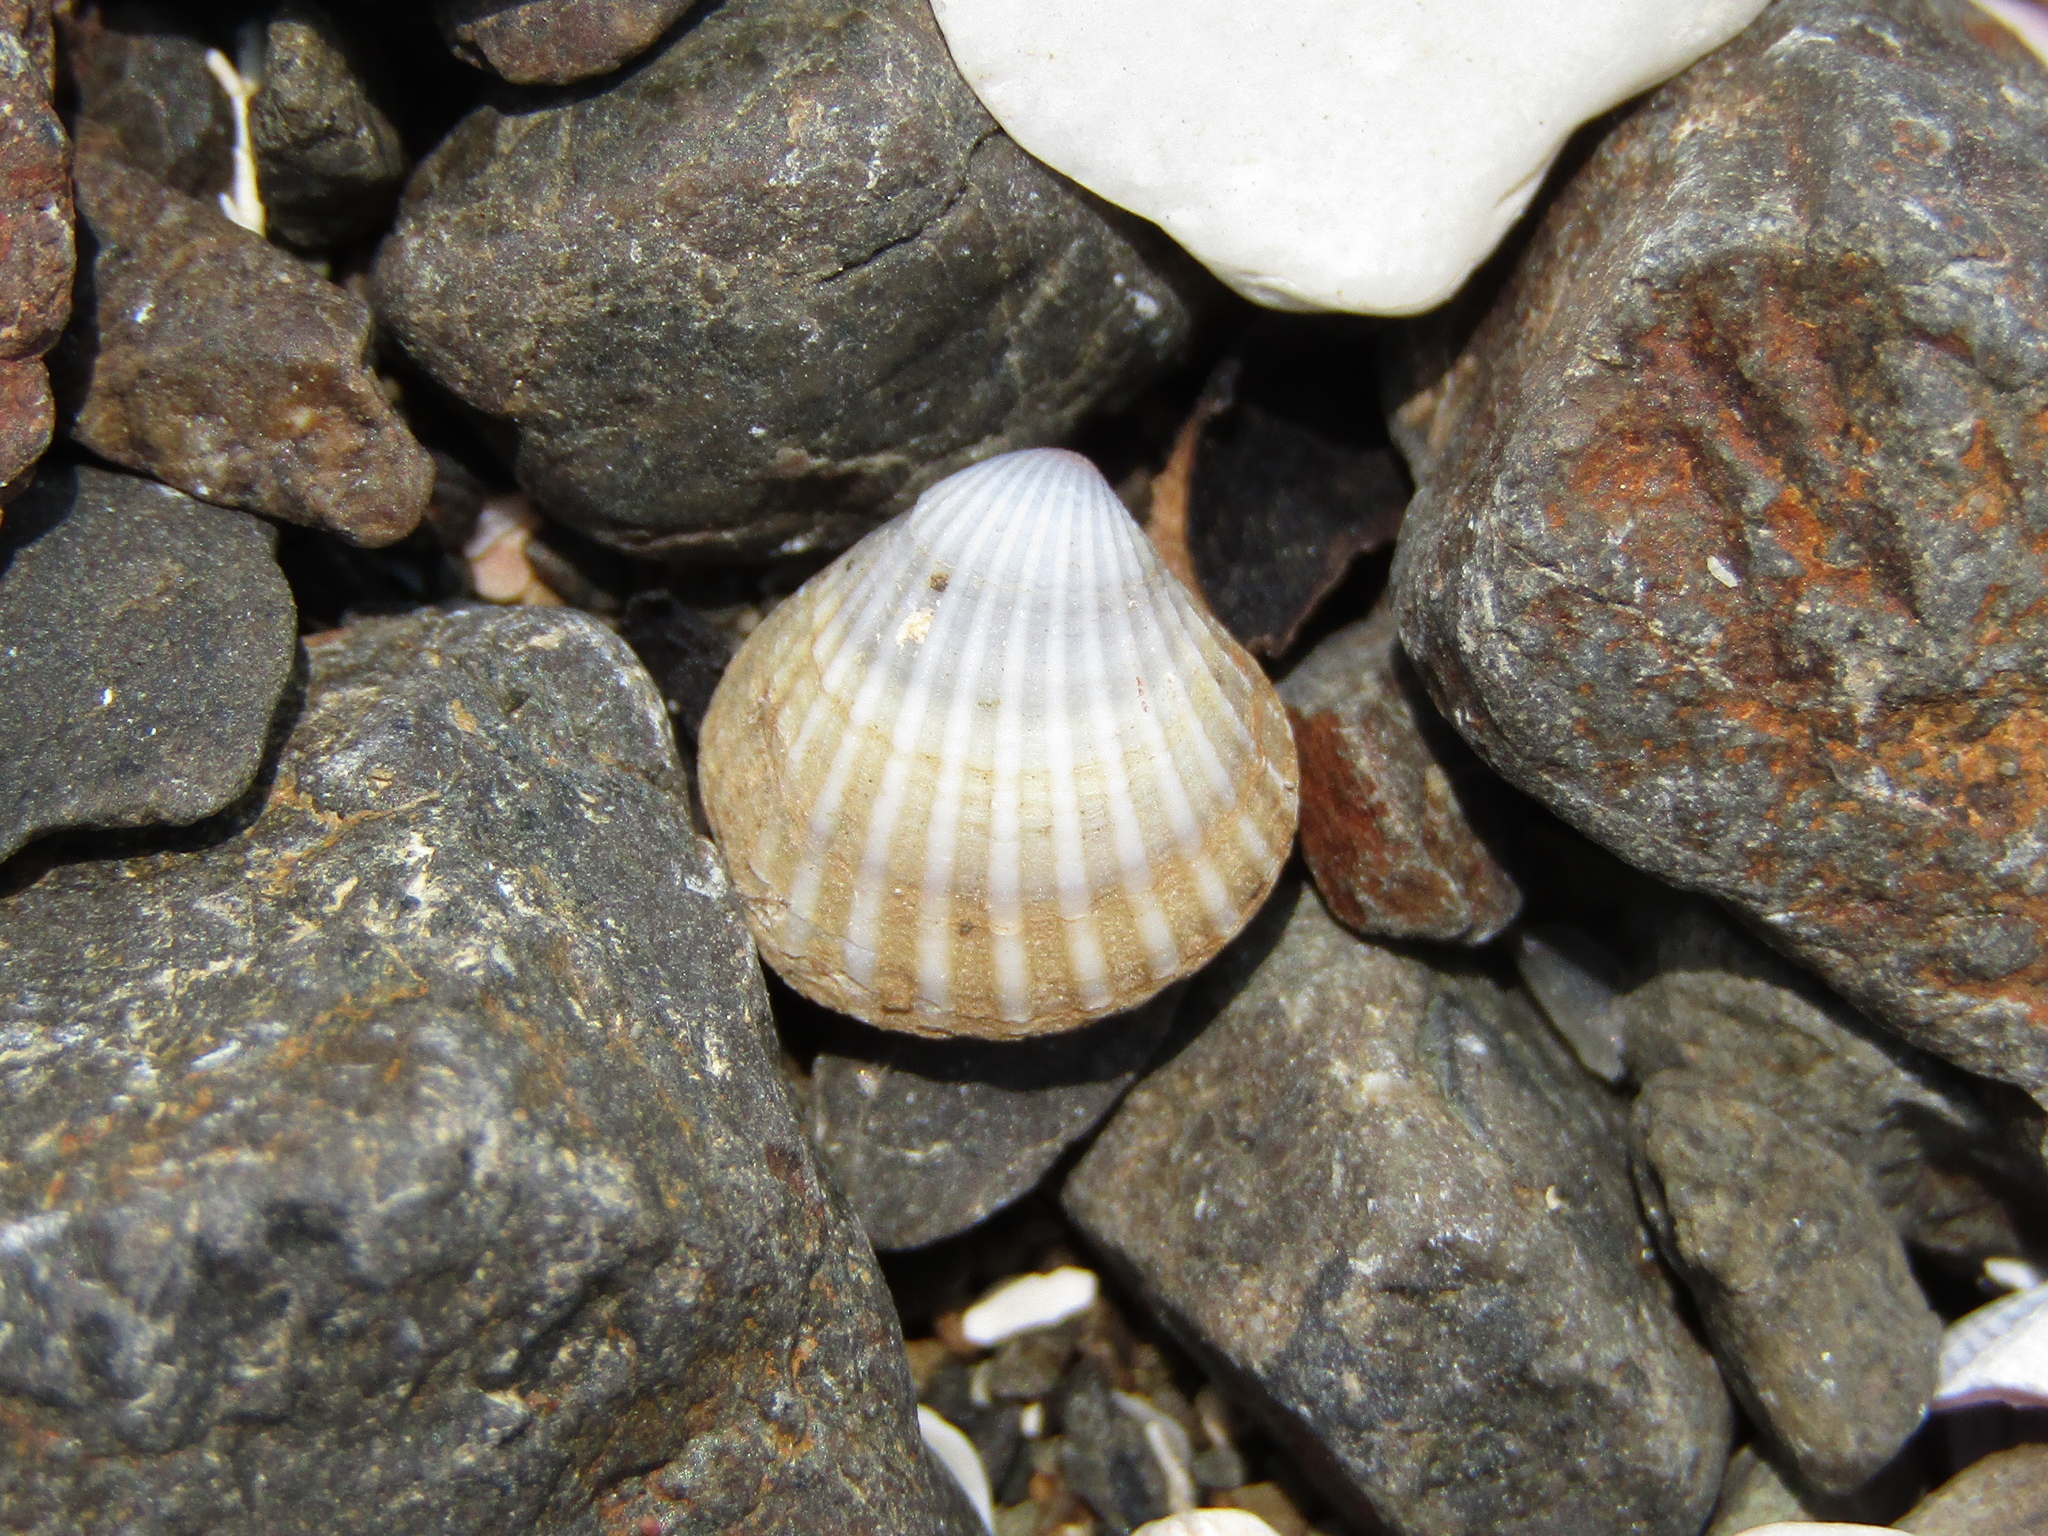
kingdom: Animalia
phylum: Mollusca
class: Bivalvia
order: Carditida
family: Carditidae
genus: Pleuromeris
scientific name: Pleuromeris zelandica
